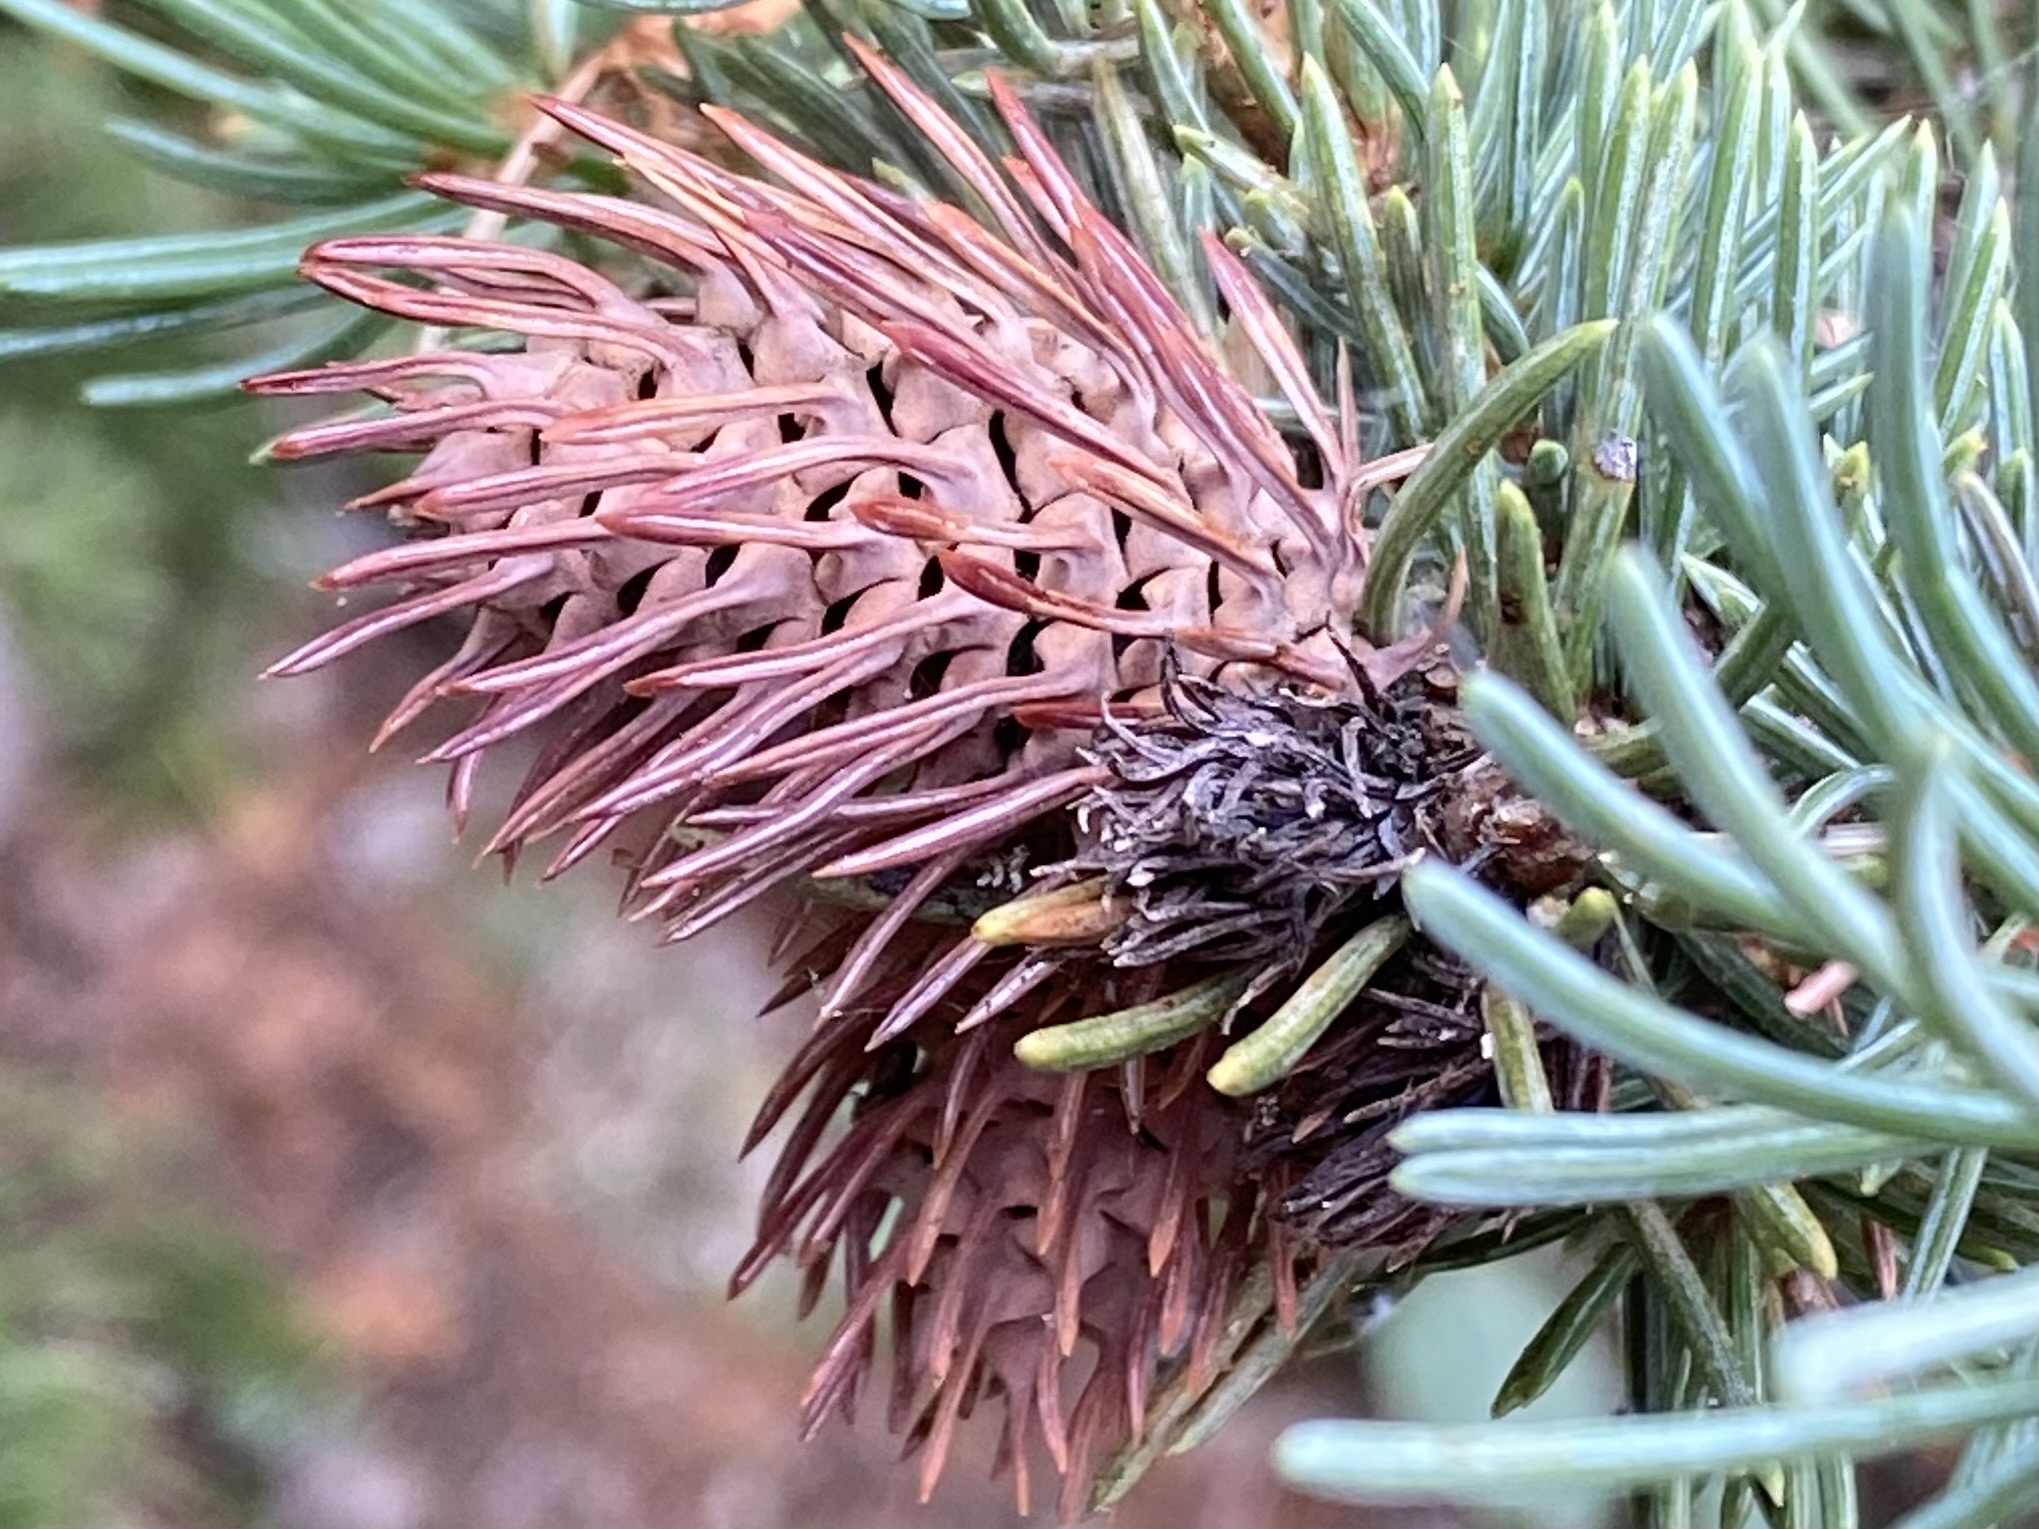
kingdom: Animalia
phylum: Arthropoda
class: Insecta
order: Hemiptera
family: Adelgidae
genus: Adelges
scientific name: Adelges cooleyi
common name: Cooley spruce gall adelgid
